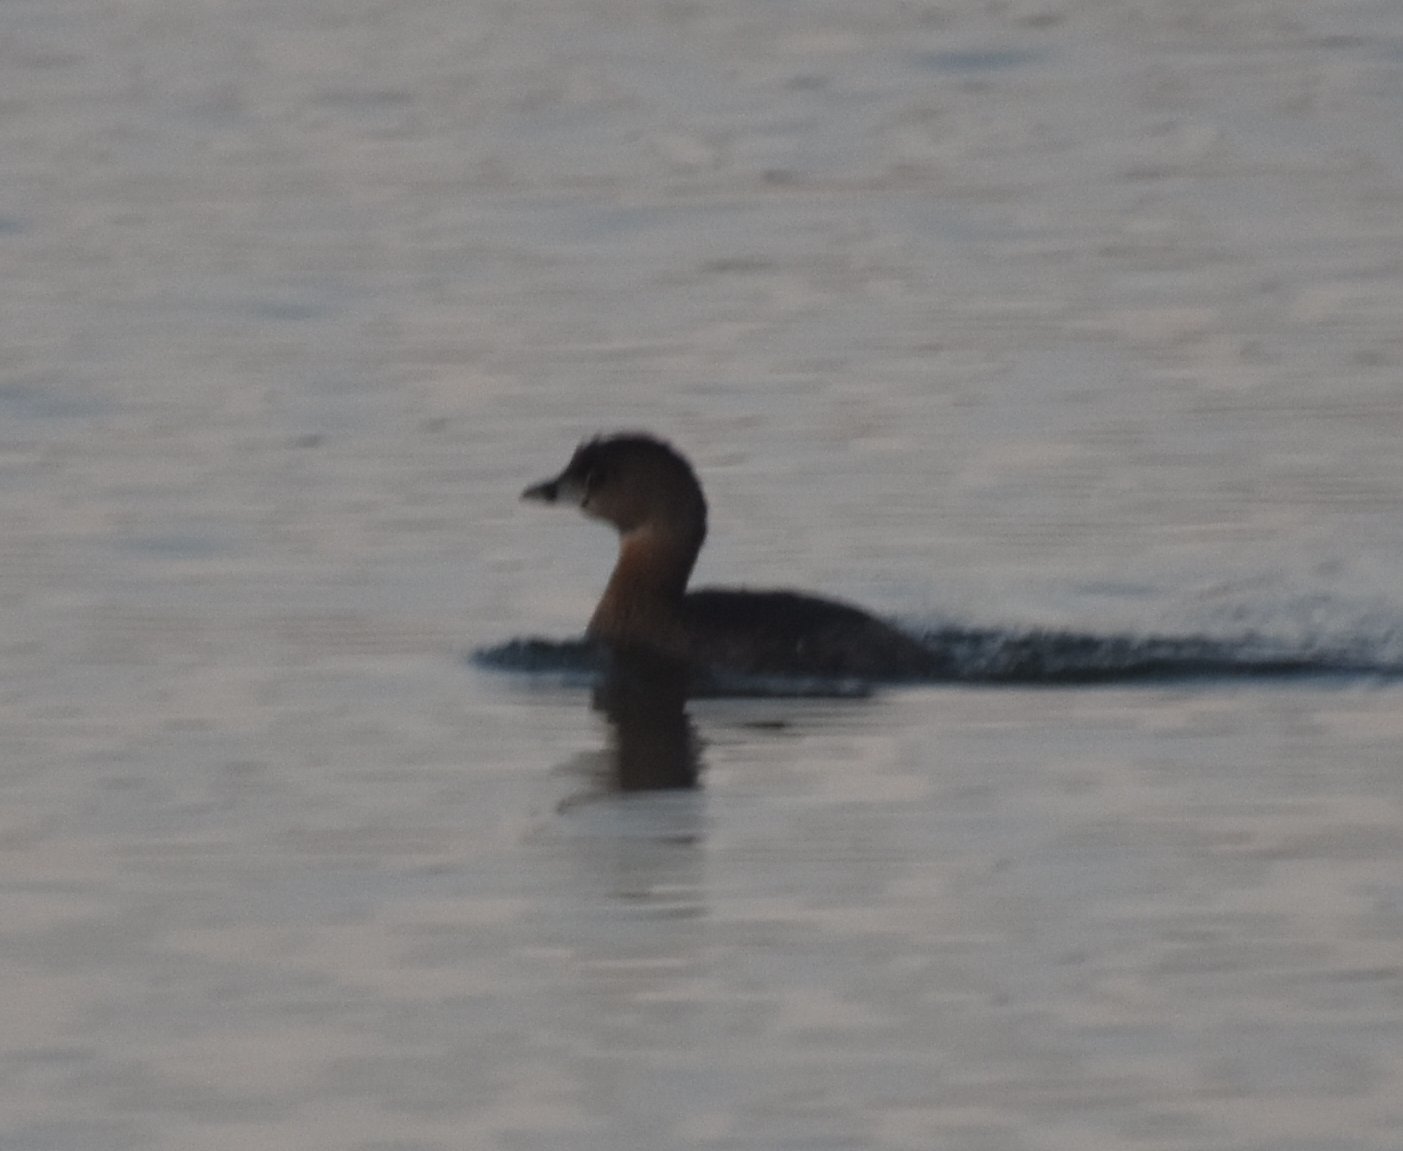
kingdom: Animalia
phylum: Chordata
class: Aves
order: Podicipediformes
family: Podicipedidae
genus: Podilymbus
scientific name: Podilymbus podiceps
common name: Pied-billed grebe
